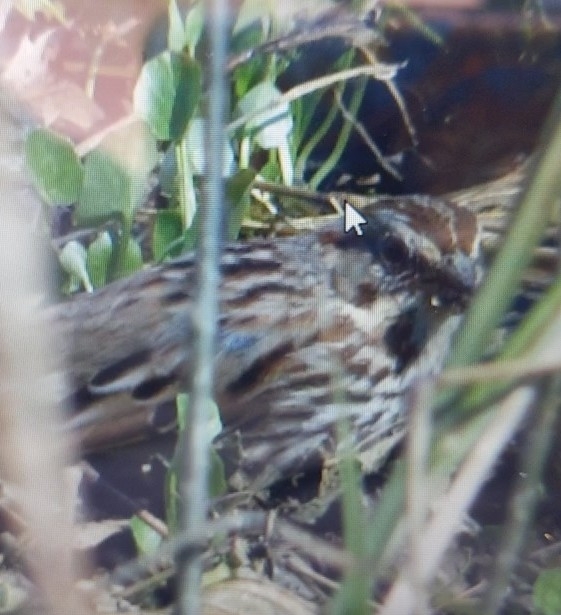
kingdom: Animalia
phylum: Chordata
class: Aves
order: Passeriformes
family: Passerellidae
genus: Melospiza
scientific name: Melospiza melodia
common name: Song sparrow
